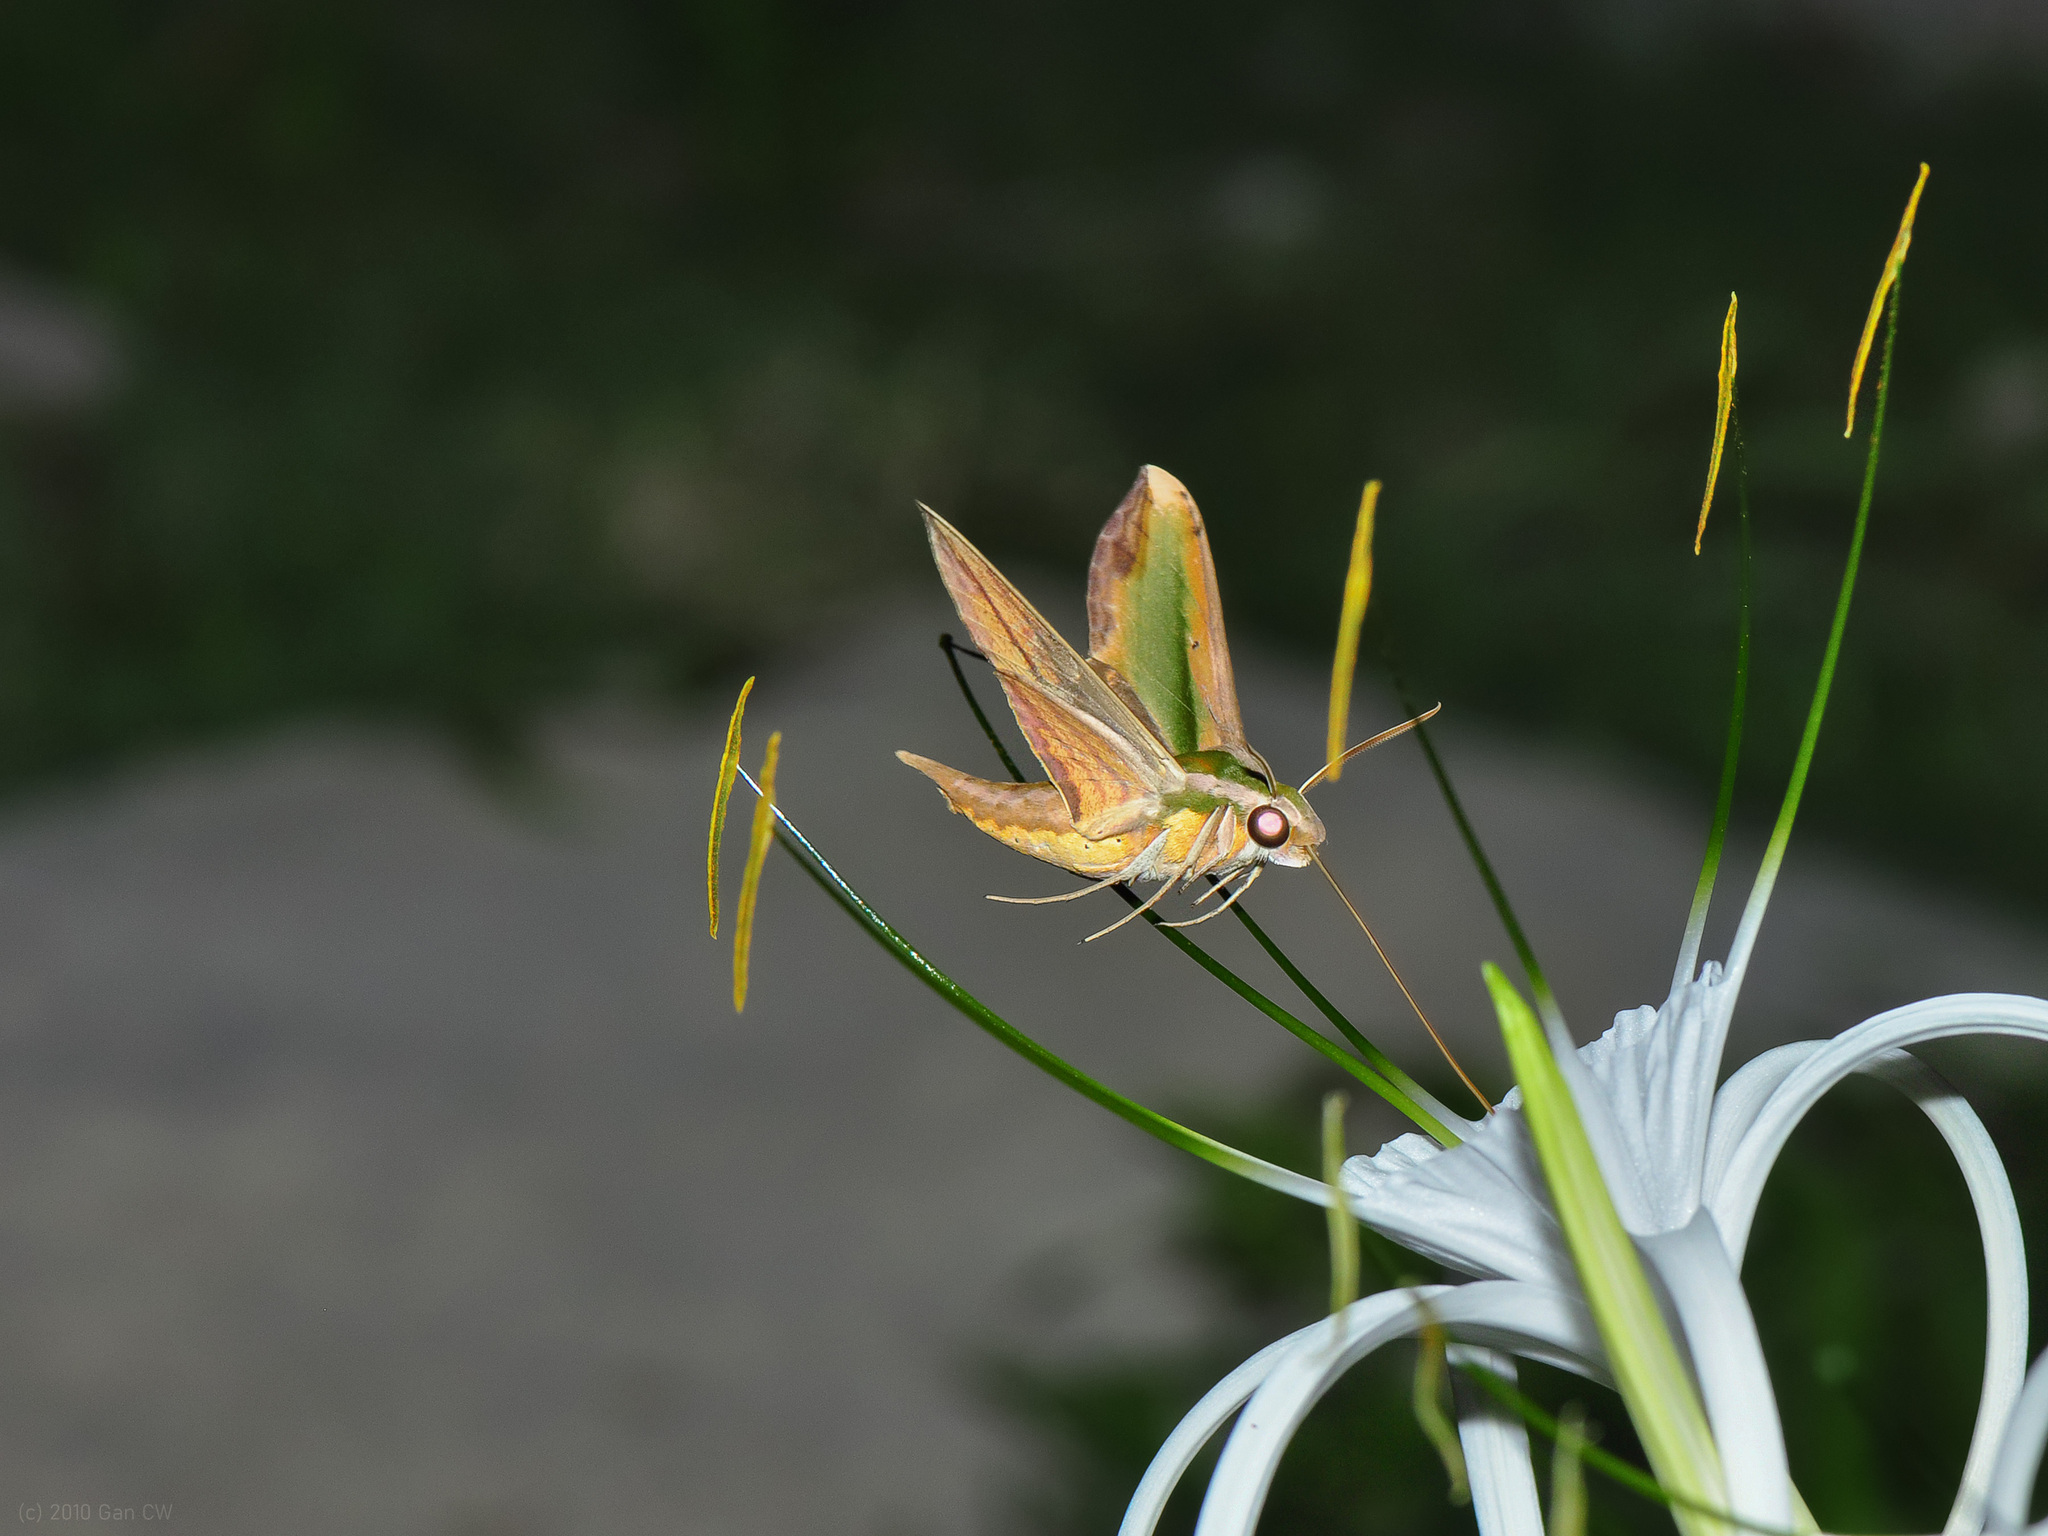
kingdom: Animalia
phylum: Arthropoda
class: Insecta
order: Lepidoptera
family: Sphingidae
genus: Pergesa
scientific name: Pergesa acteus
